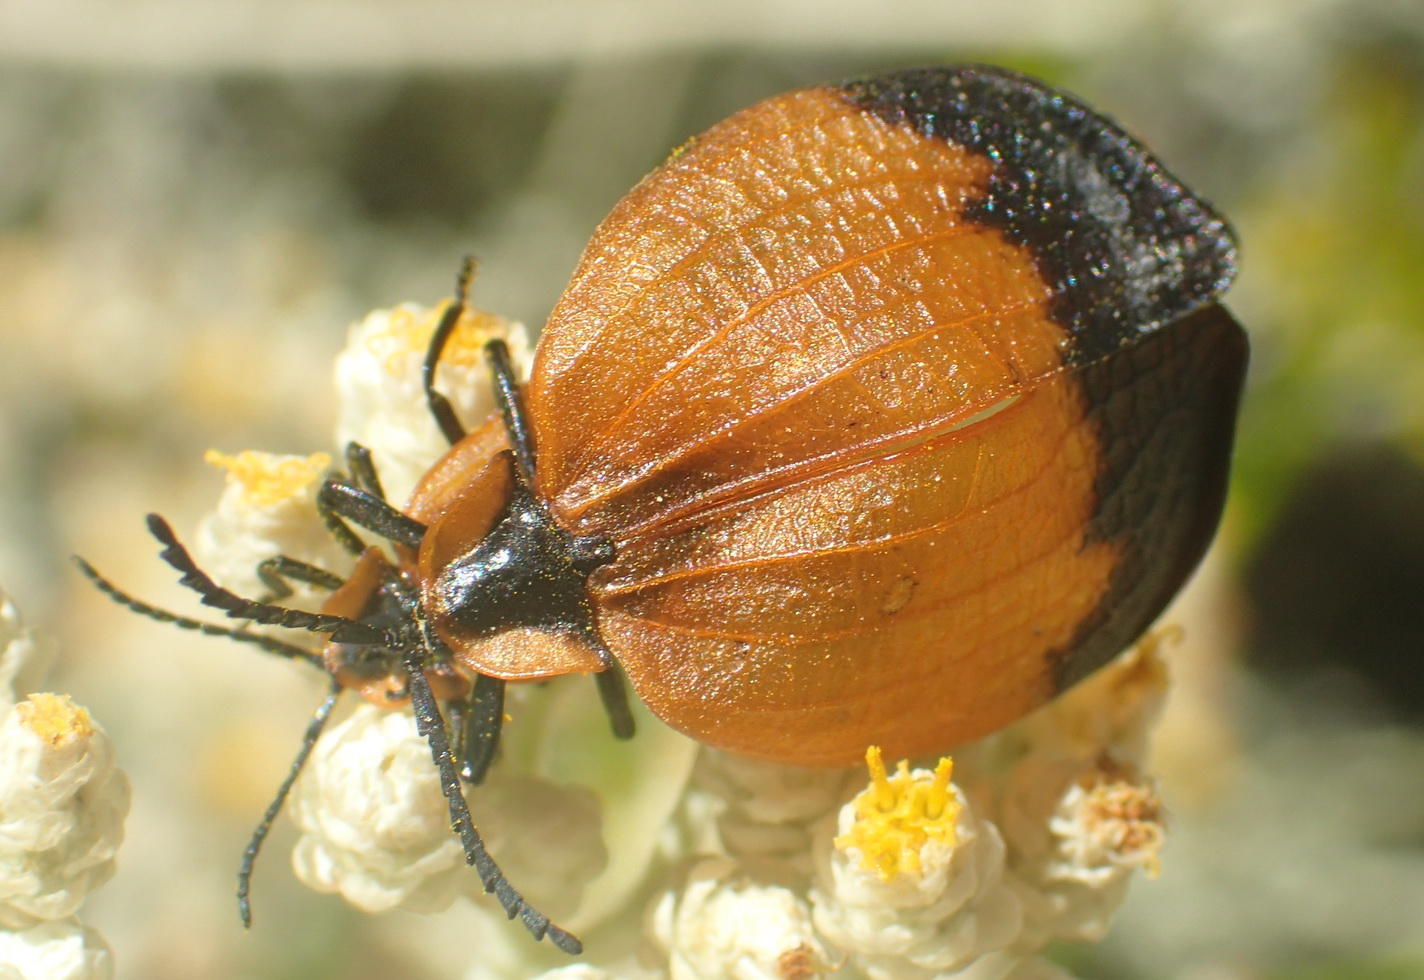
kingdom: Animalia
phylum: Arthropoda
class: Insecta
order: Coleoptera
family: Lycidae
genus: Lycus
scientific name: Lycus
